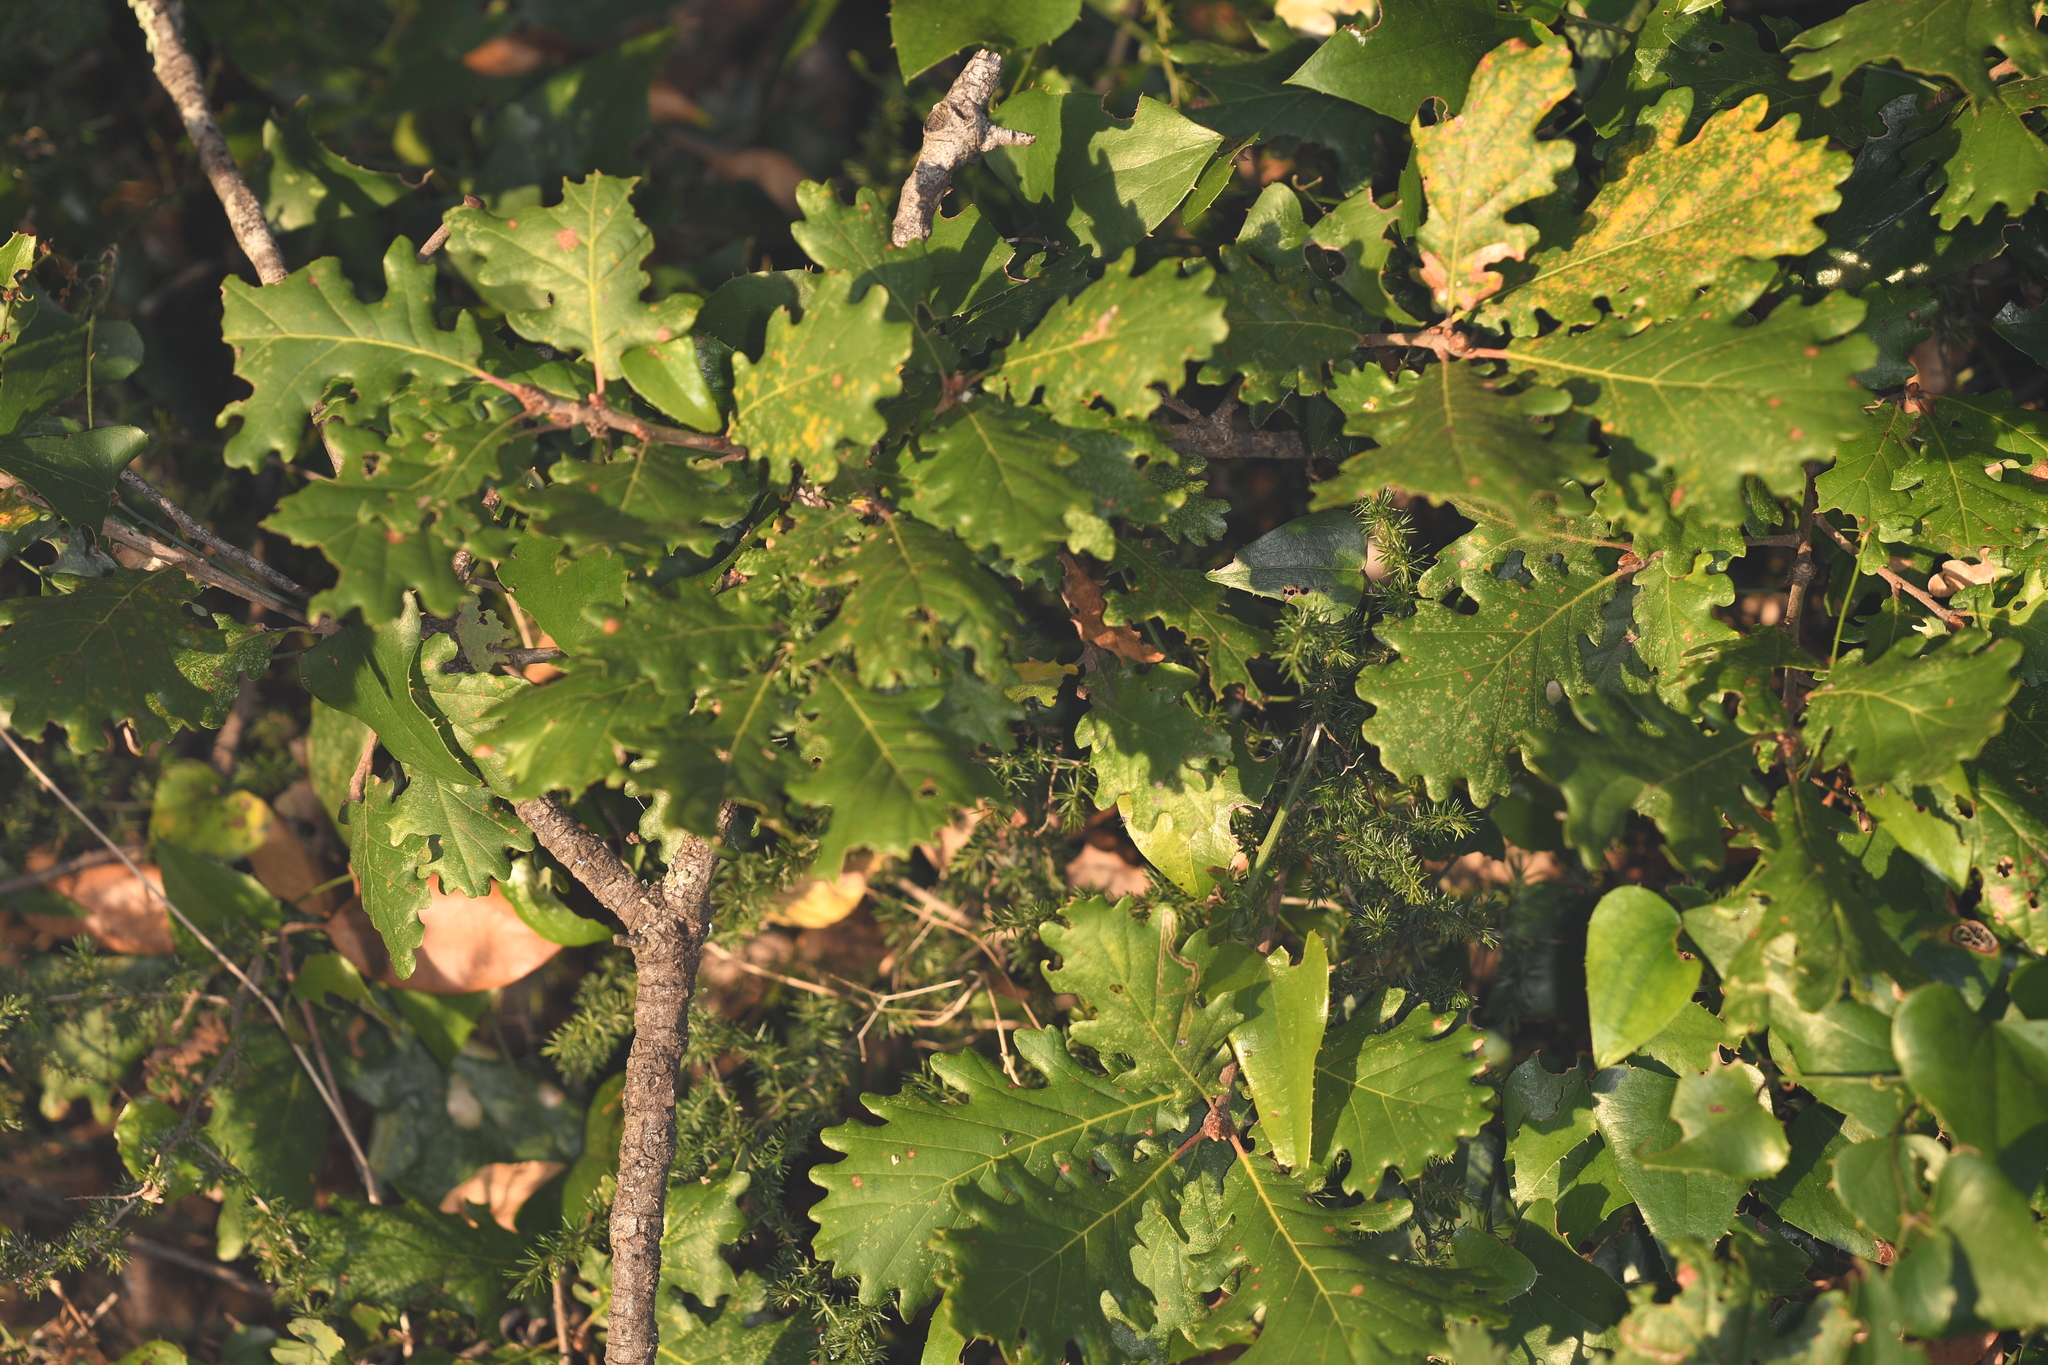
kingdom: Plantae
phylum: Tracheophyta
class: Magnoliopsida
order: Fagales
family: Fagaceae
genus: Quercus
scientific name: Quercus pubescens
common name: Downy oak
